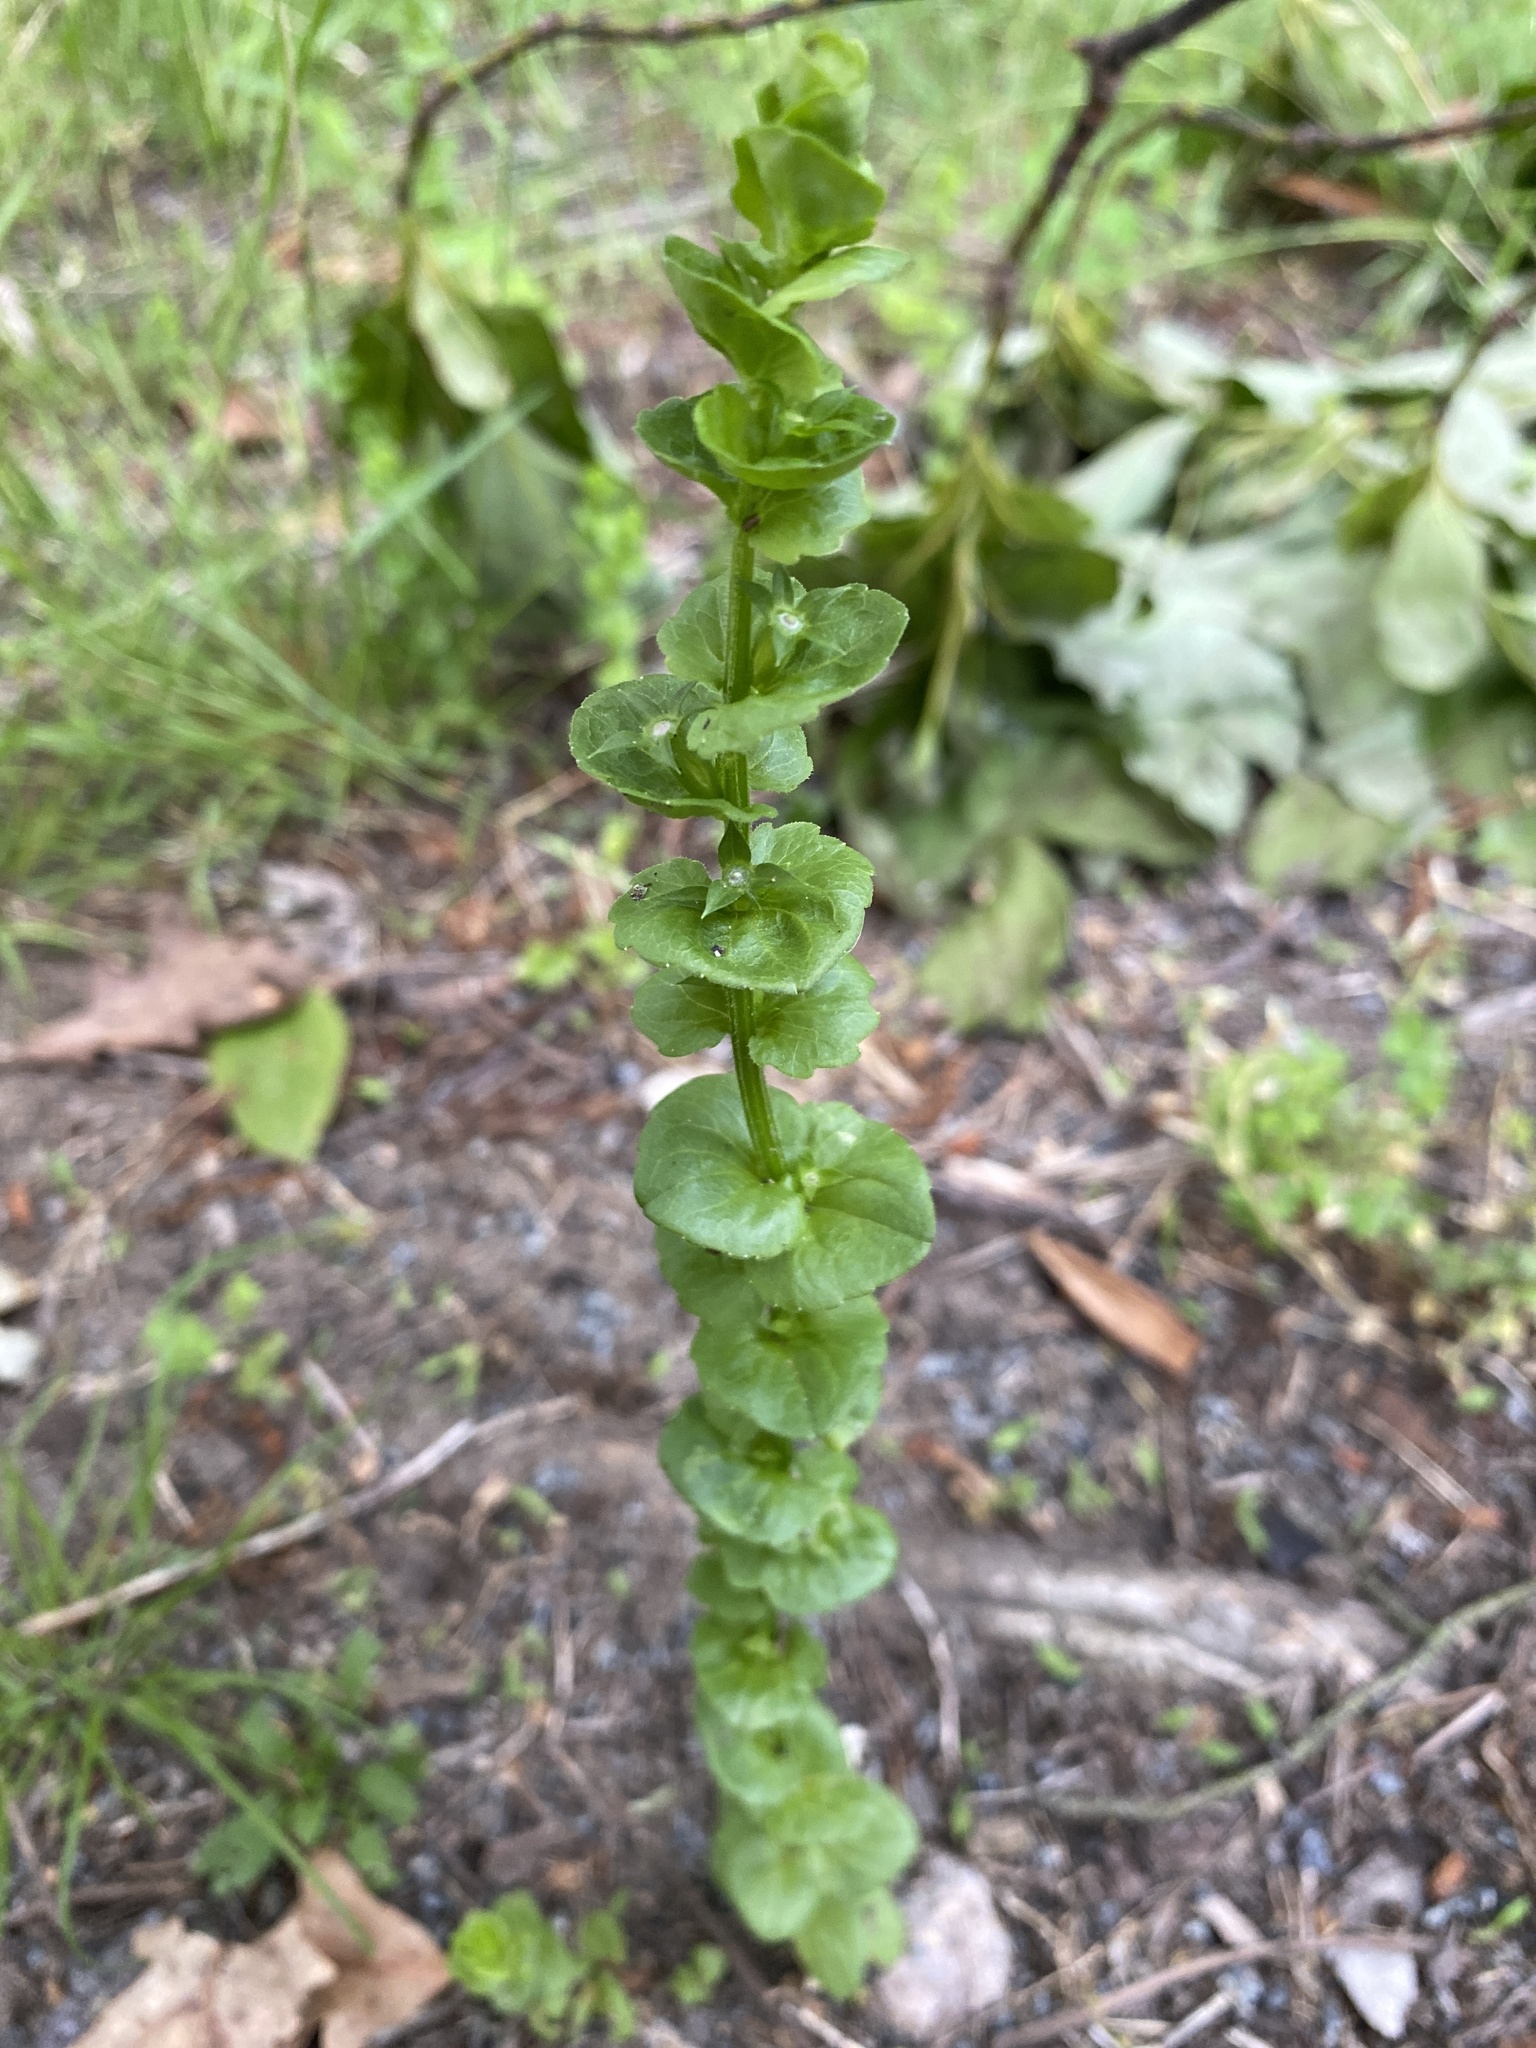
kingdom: Plantae
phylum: Tracheophyta
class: Magnoliopsida
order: Asterales
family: Campanulaceae
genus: Triodanis
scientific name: Triodanis perfoliata
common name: Clasping venus' looking-glass
